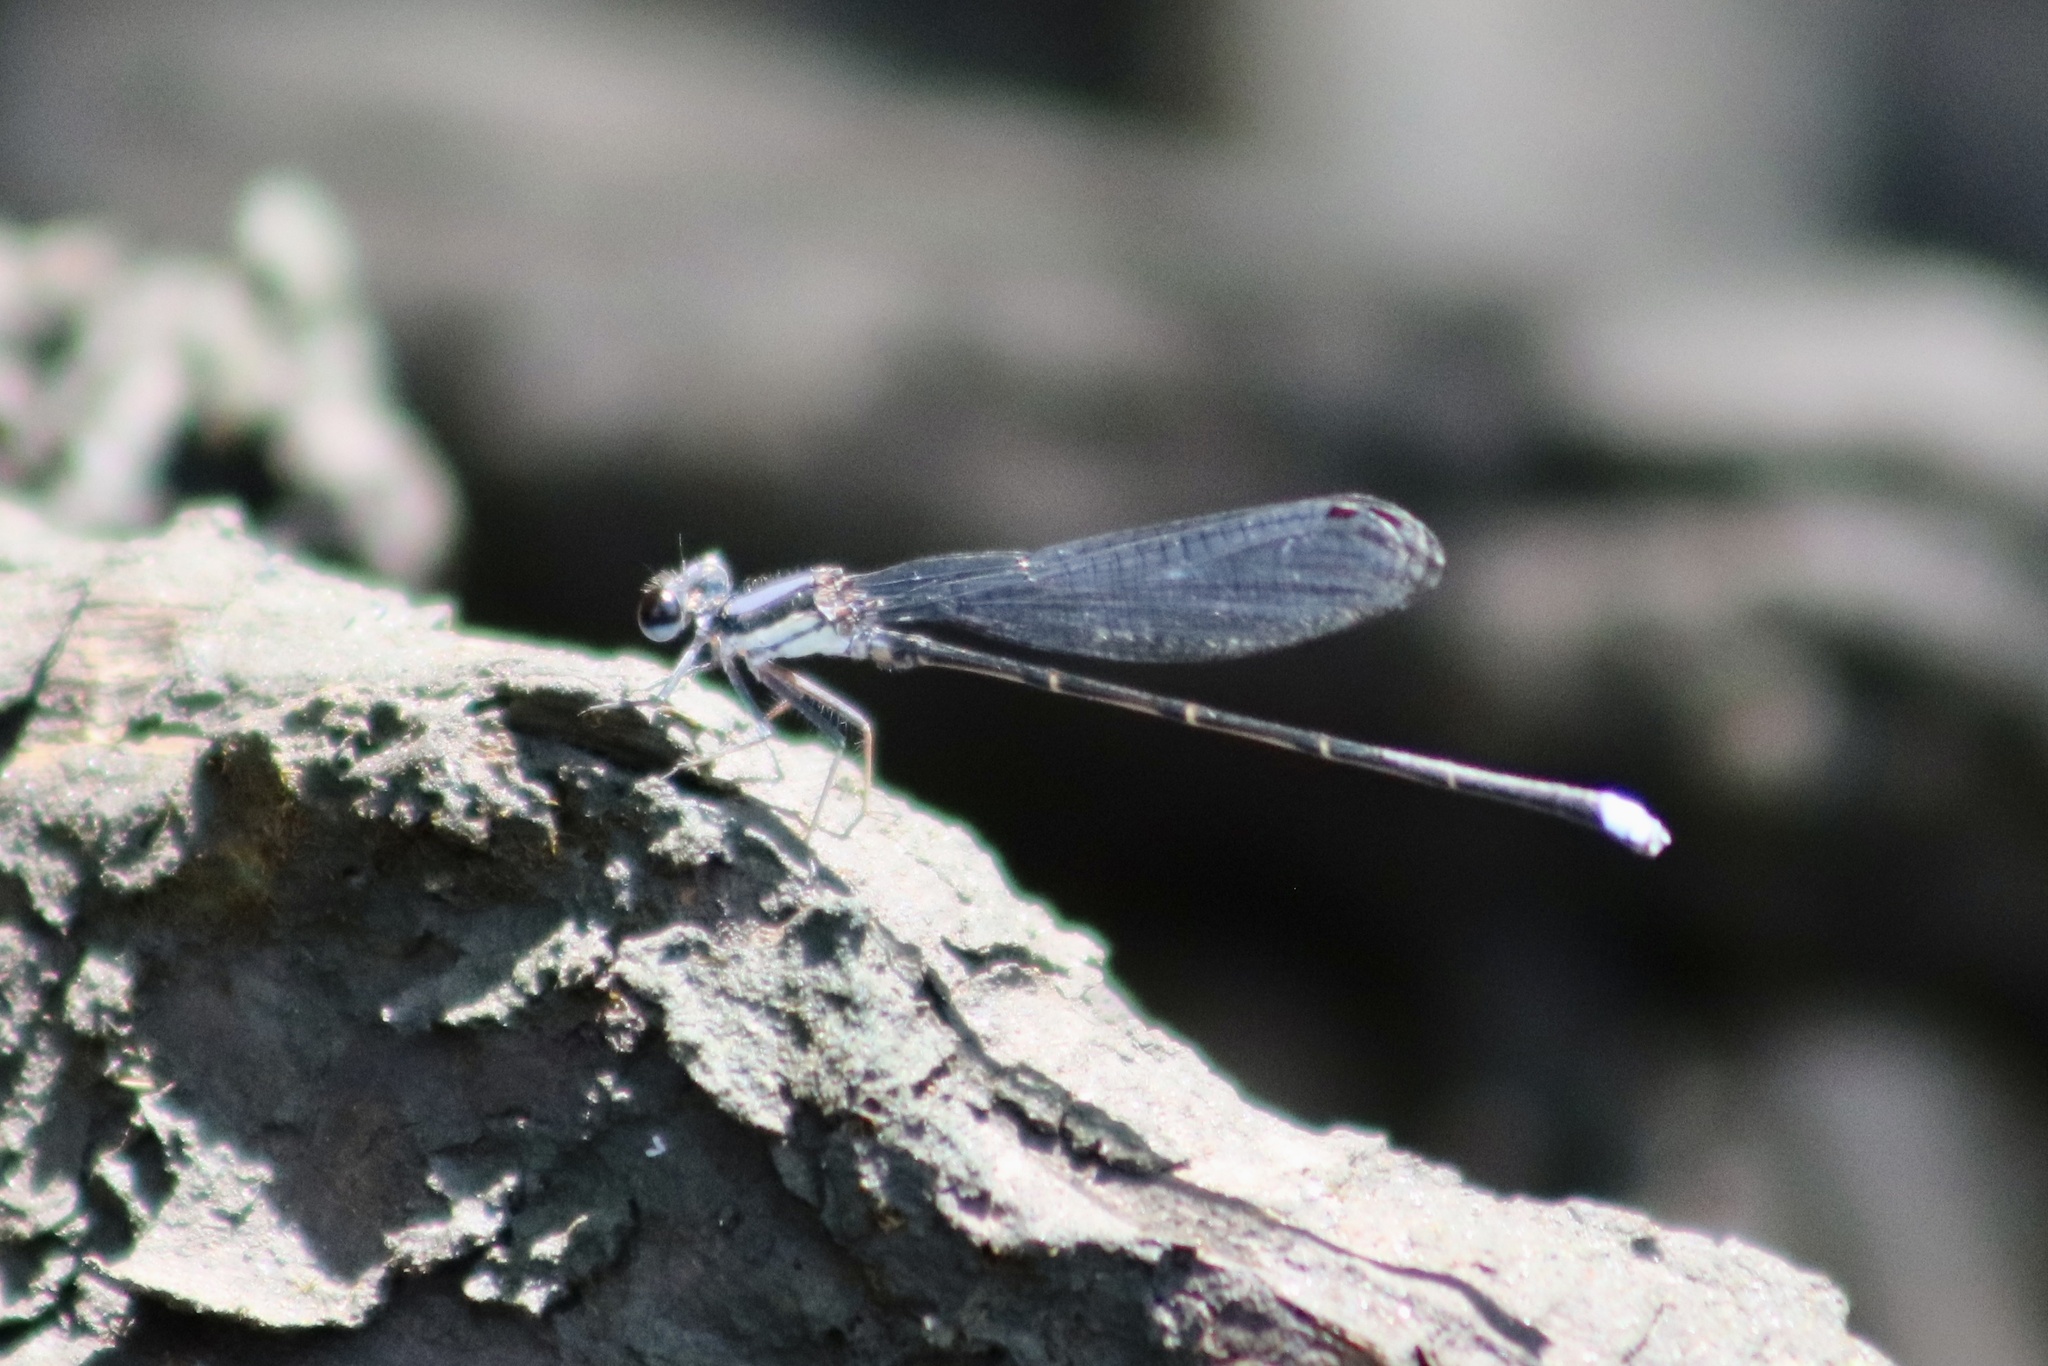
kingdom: Animalia
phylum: Arthropoda
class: Insecta
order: Odonata
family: Coenagrionidae
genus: Argia
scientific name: Argia tibialis
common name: Blue-tipped dancer
